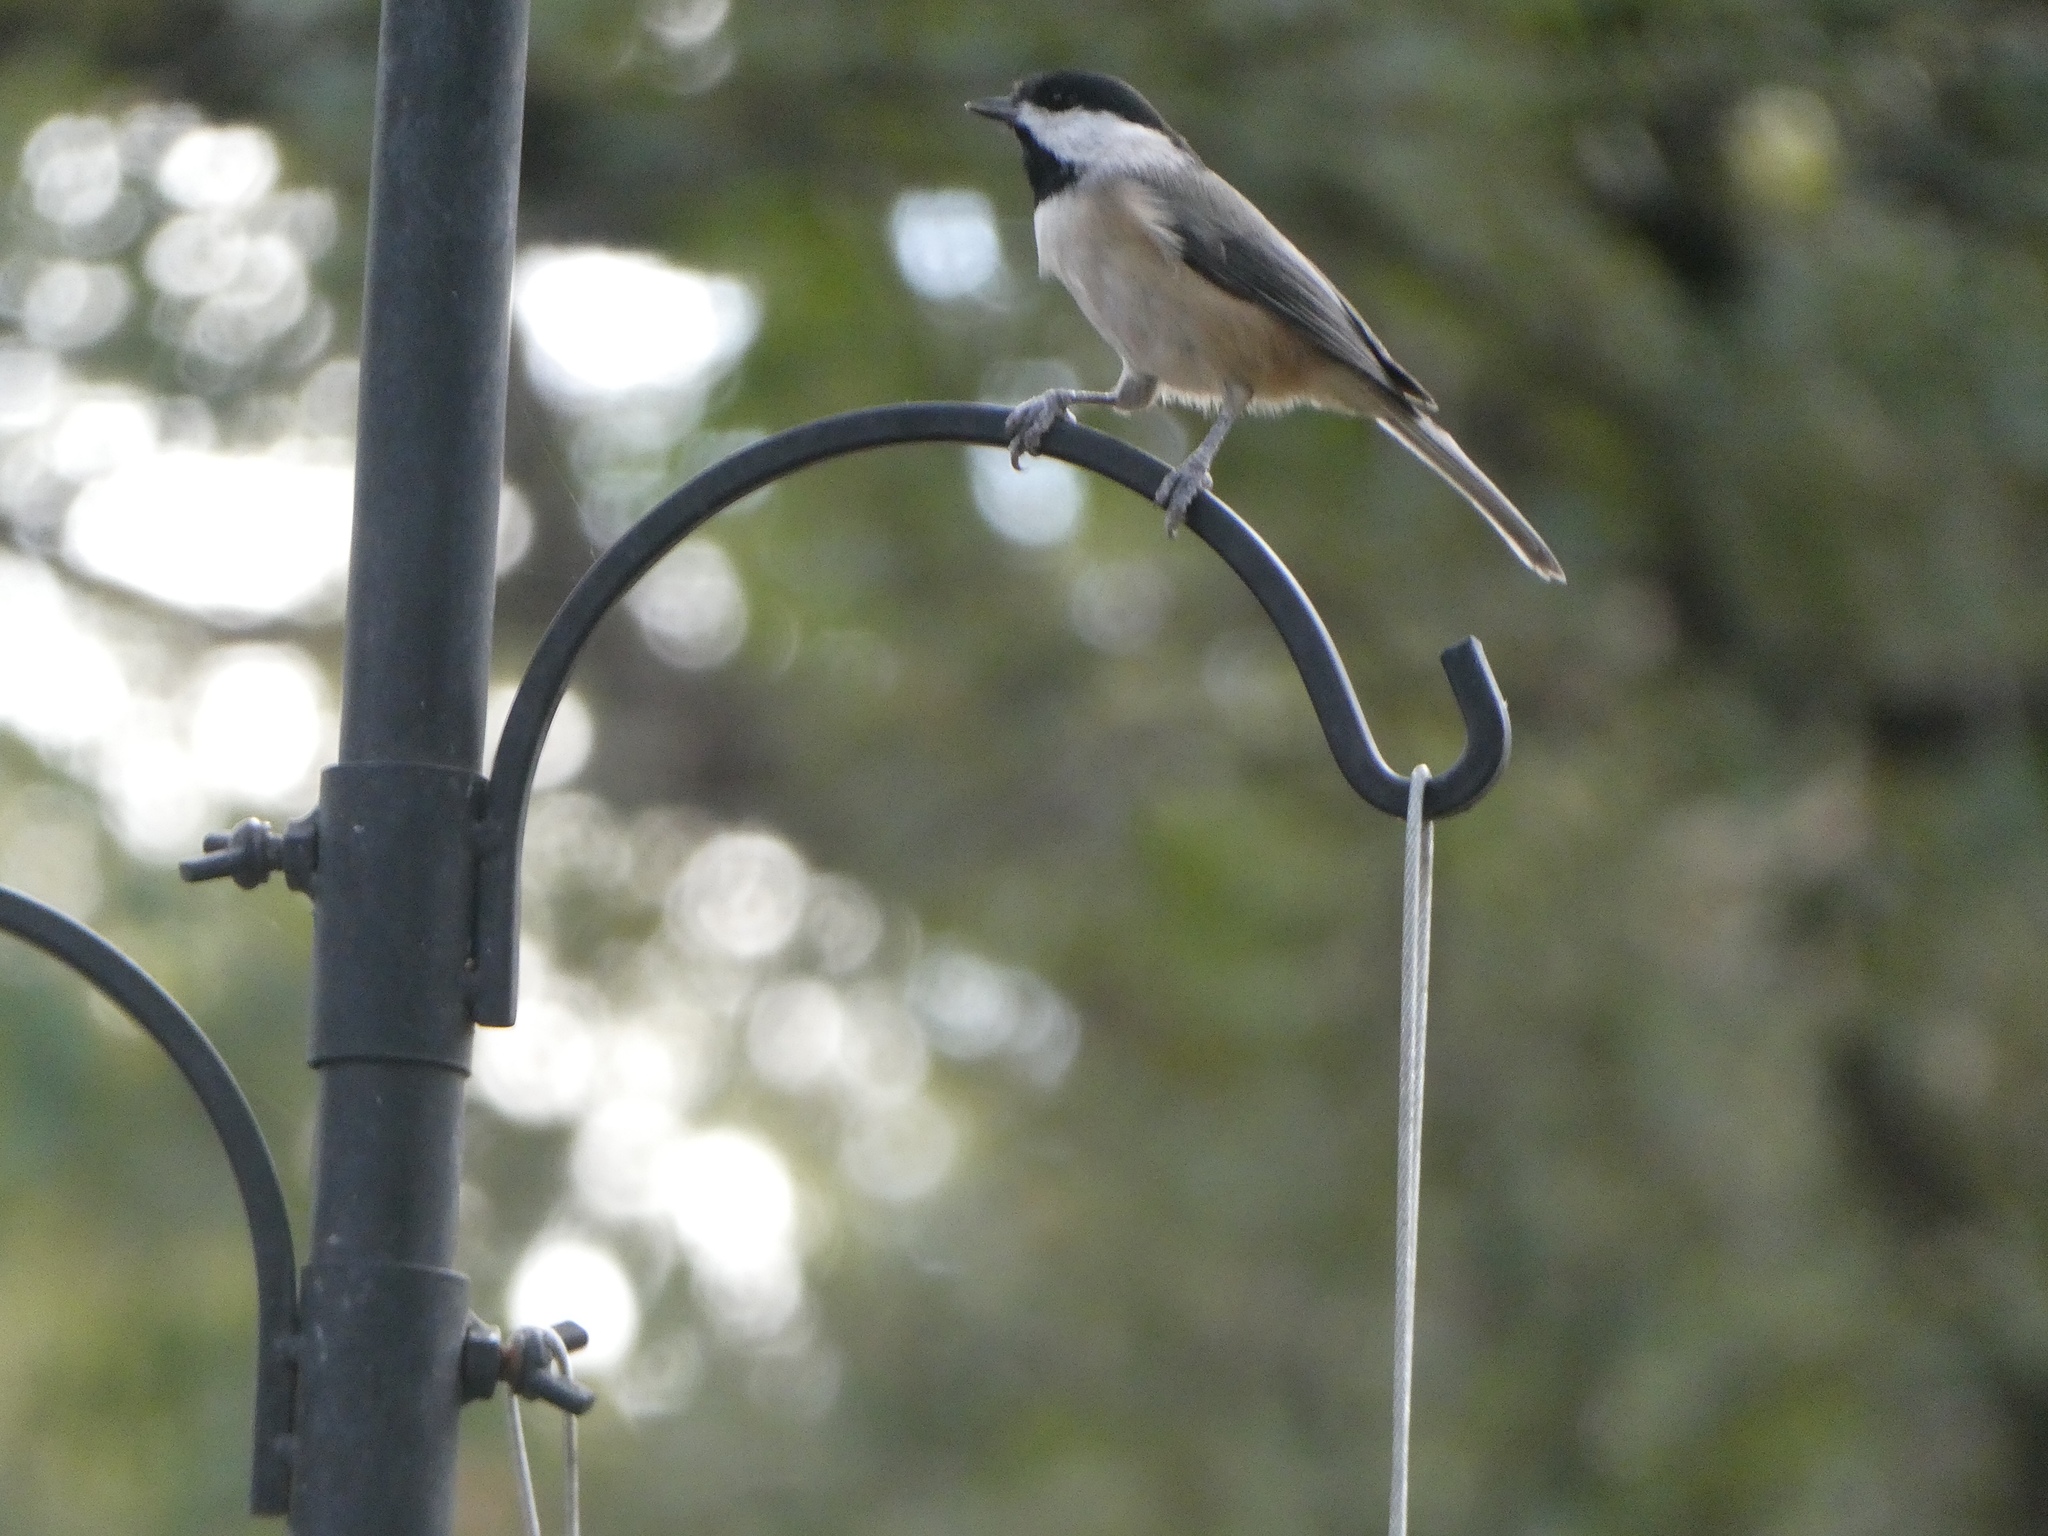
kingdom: Animalia
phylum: Chordata
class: Aves
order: Passeriformes
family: Paridae
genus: Poecile
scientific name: Poecile carolinensis
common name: Carolina chickadee
